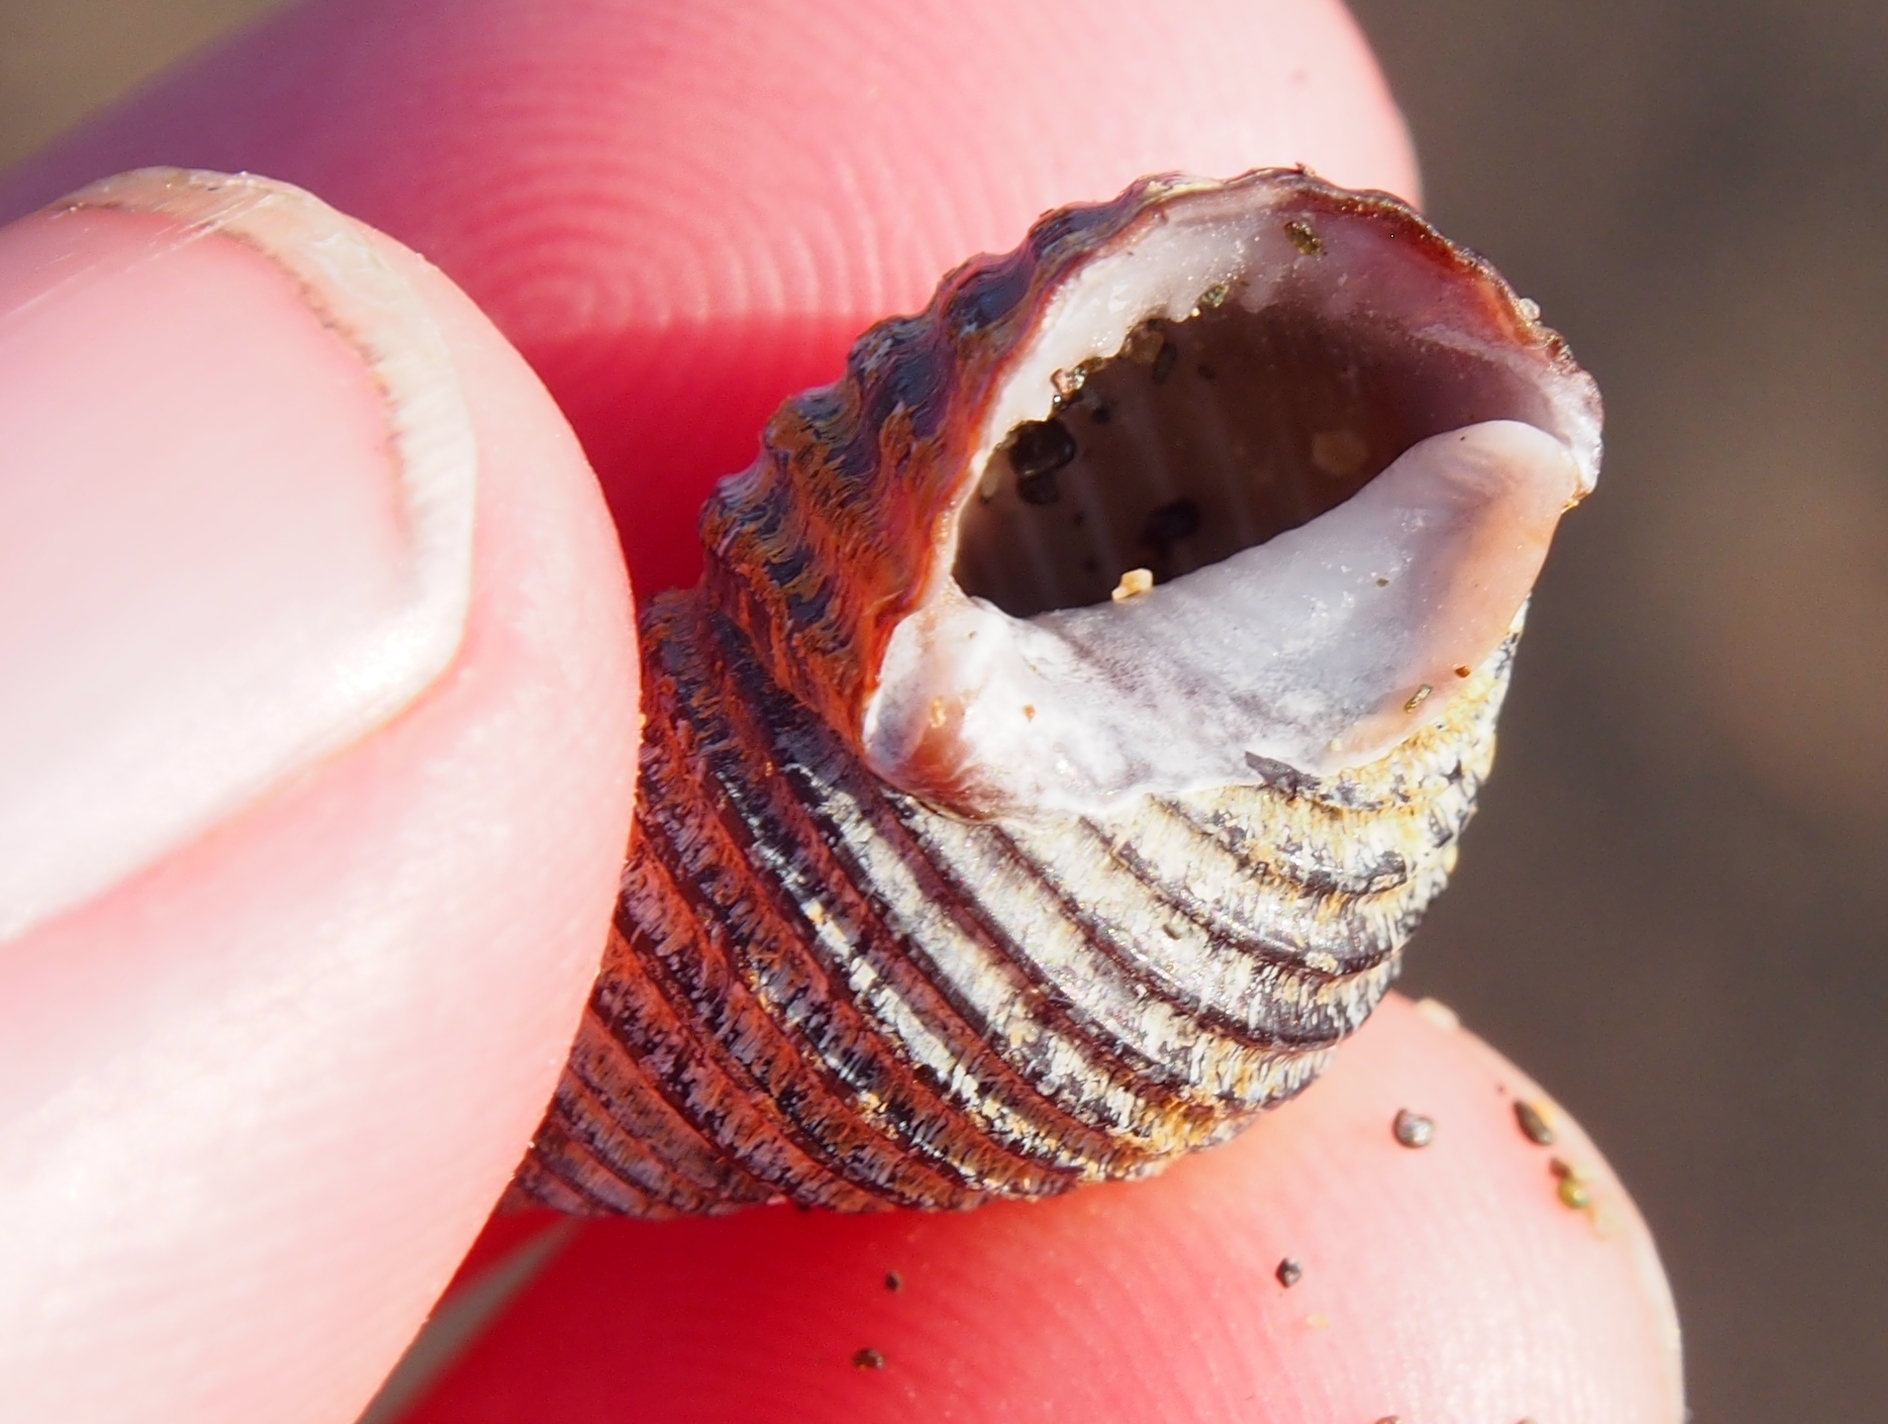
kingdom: Animalia
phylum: Mollusca
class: Gastropoda
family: Planaxidae
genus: Supplanaxis
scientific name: Supplanaxis planicostatus
